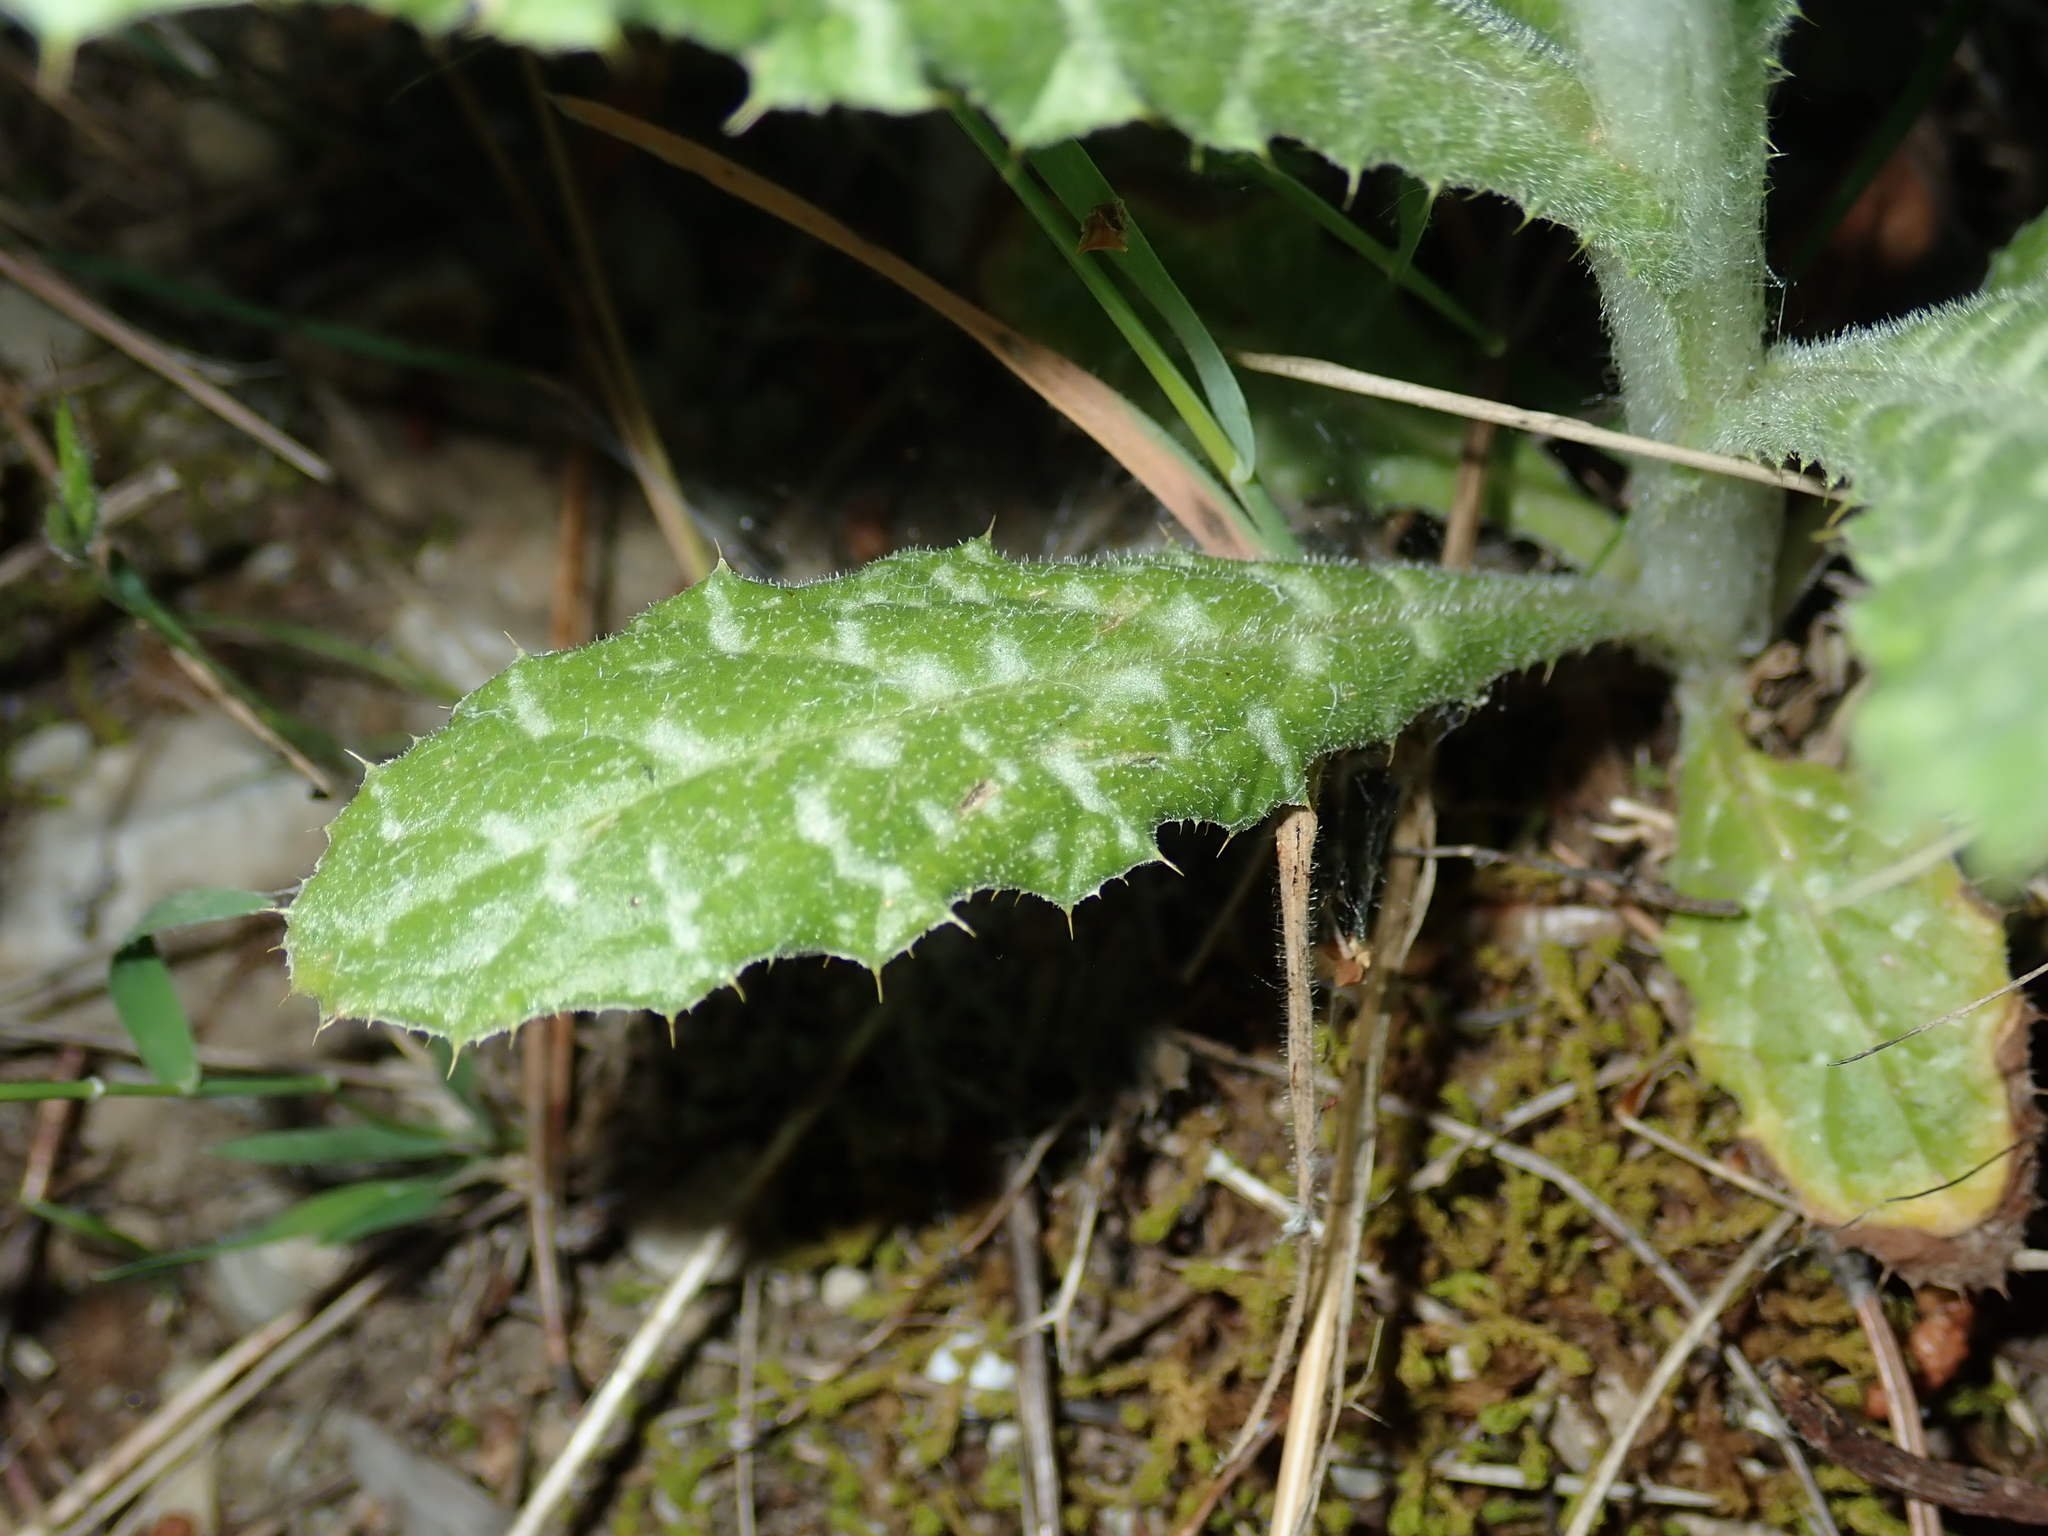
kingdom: Plantae
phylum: Tracheophyta
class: Magnoliopsida
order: Asterales
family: Asteraceae
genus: Tyrimnus
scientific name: Tyrimnus leucographus
